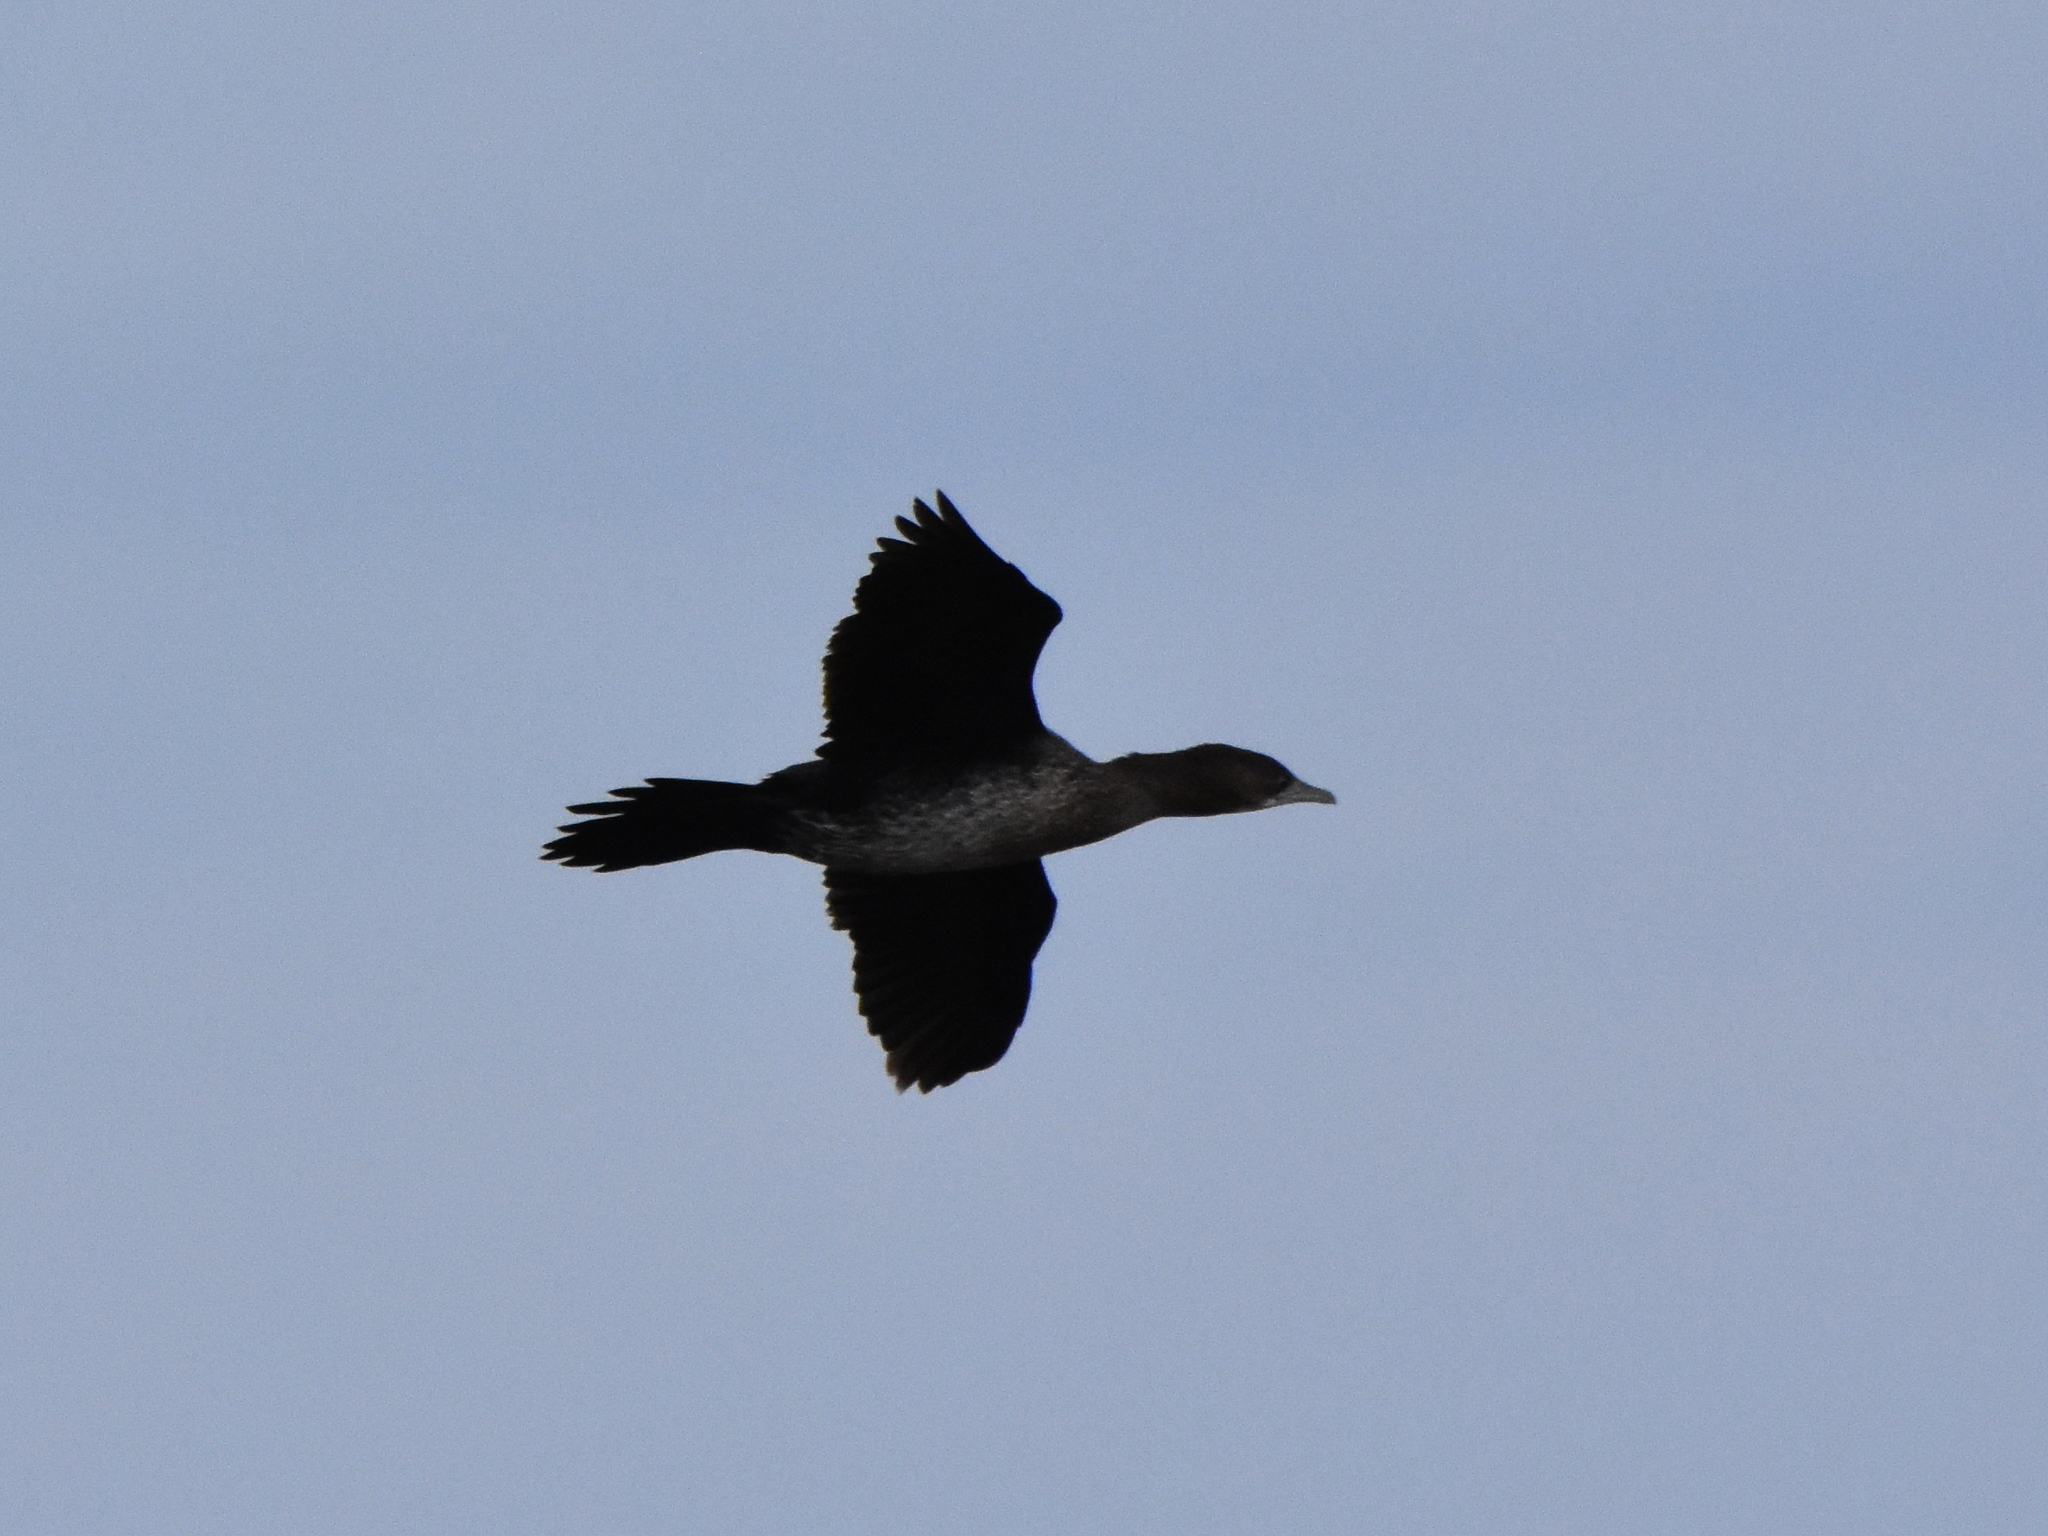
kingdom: Animalia
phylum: Chordata
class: Aves
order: Suliformes
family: Phalacrocoracidae
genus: Microcarbo
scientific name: Microcarbo pygmaeus
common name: Pygmy cormorant
